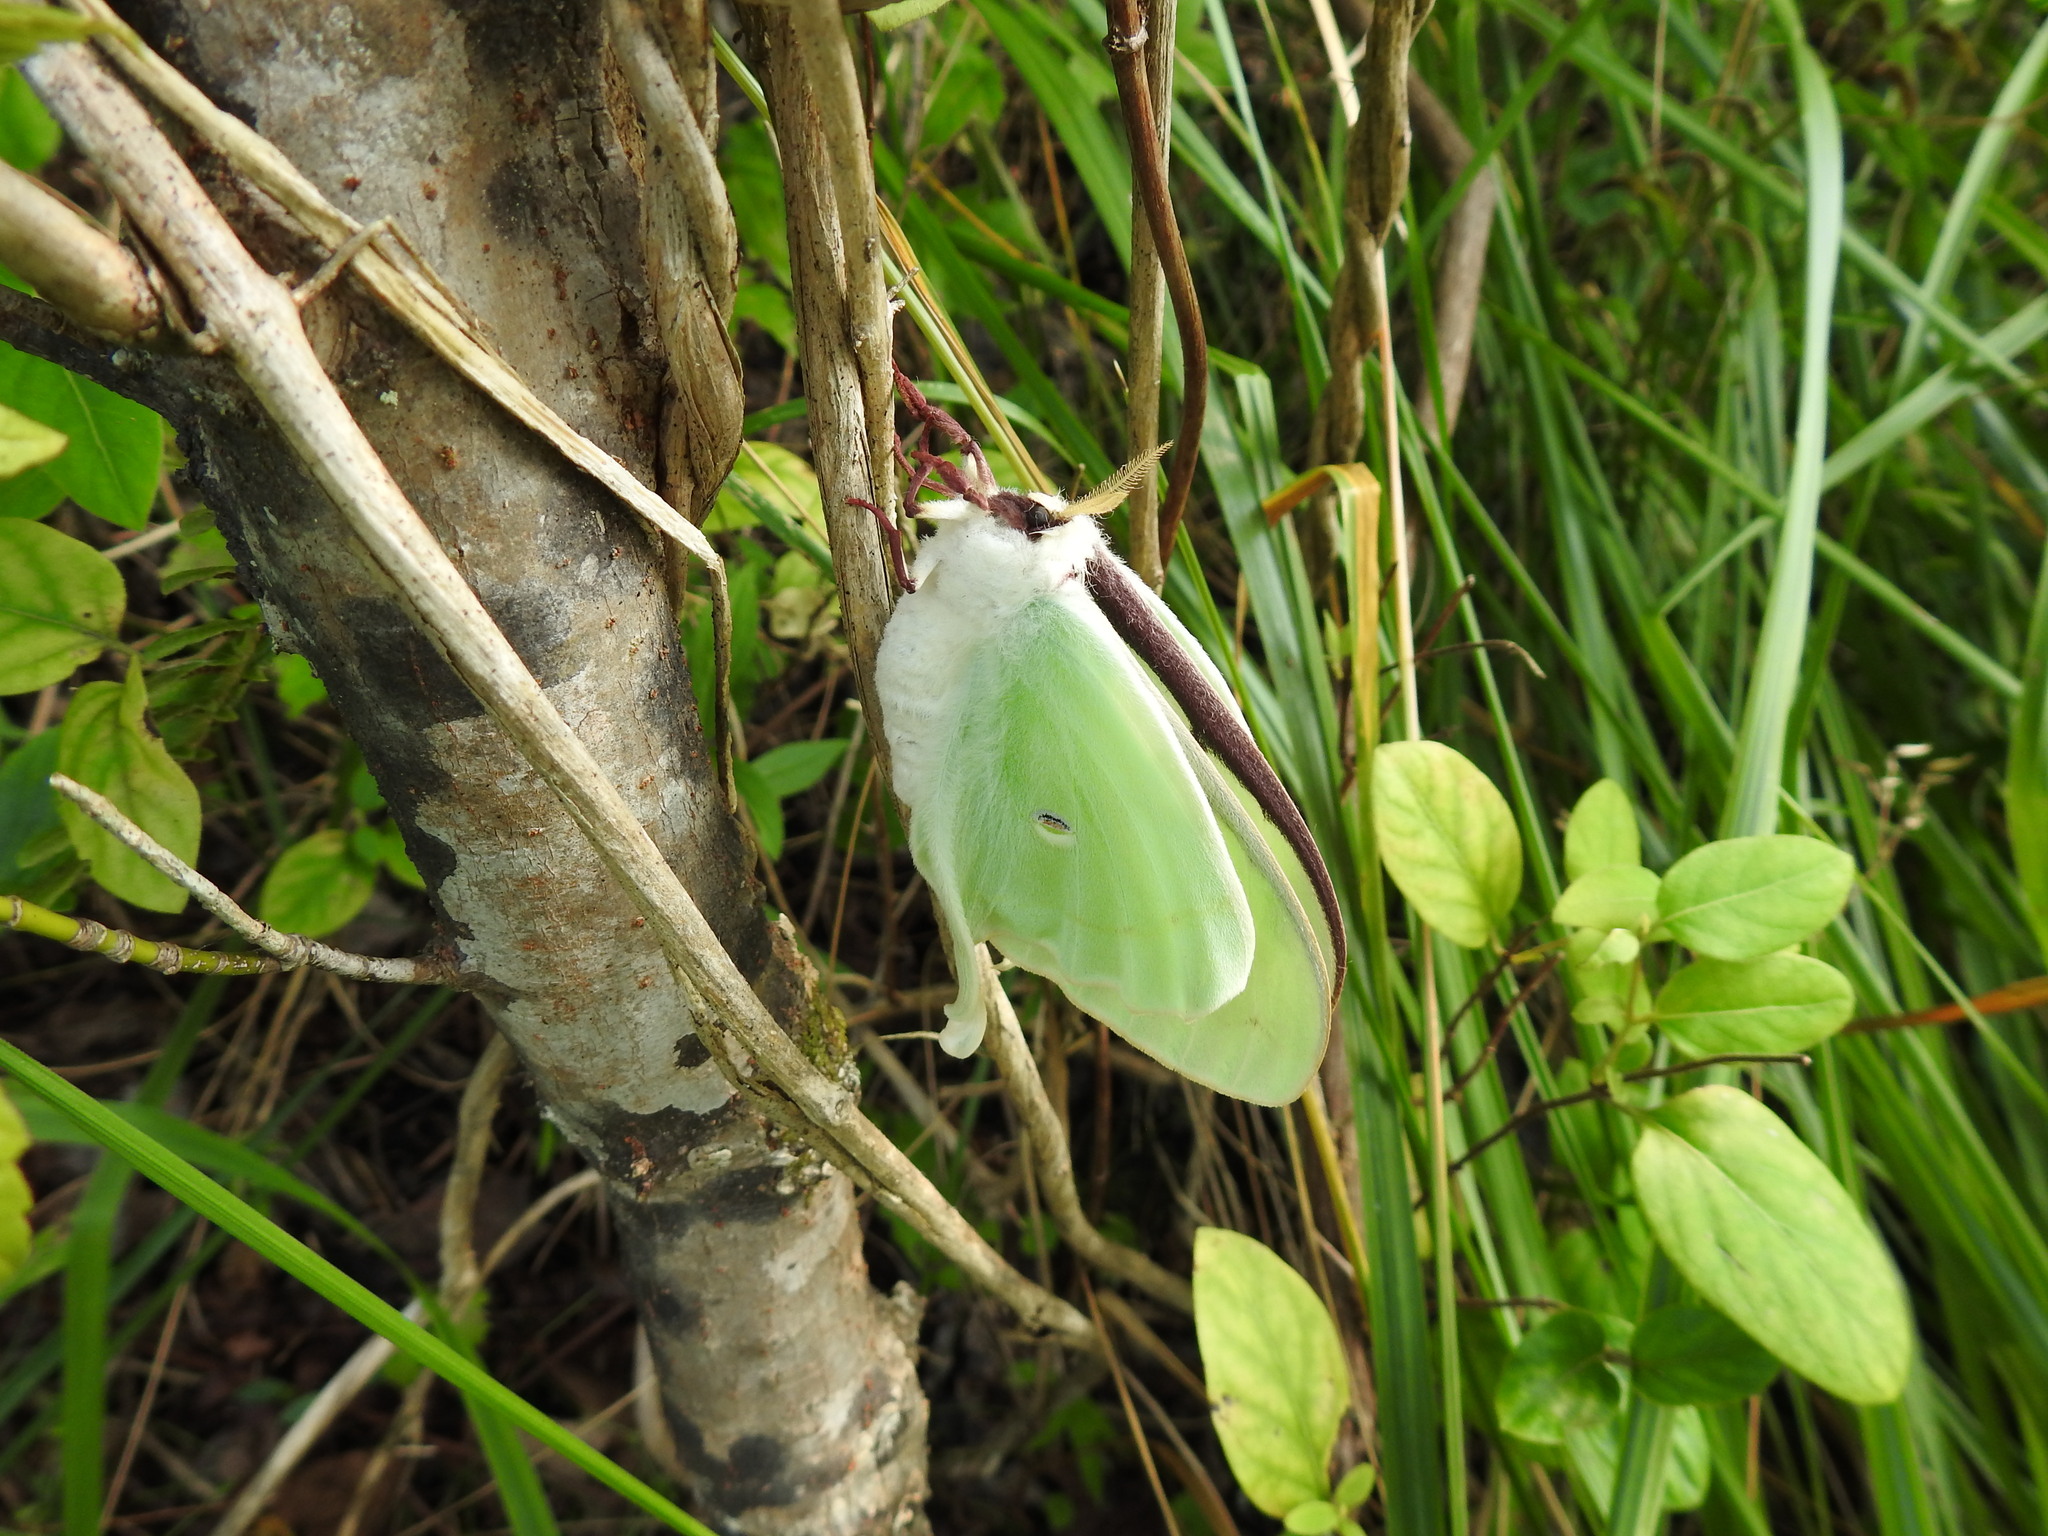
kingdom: Animalia
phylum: Arthropoda
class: Insecta
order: Lepidoptera
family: Saturniidae
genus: Actias
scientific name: Actias luna
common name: Luna moth
